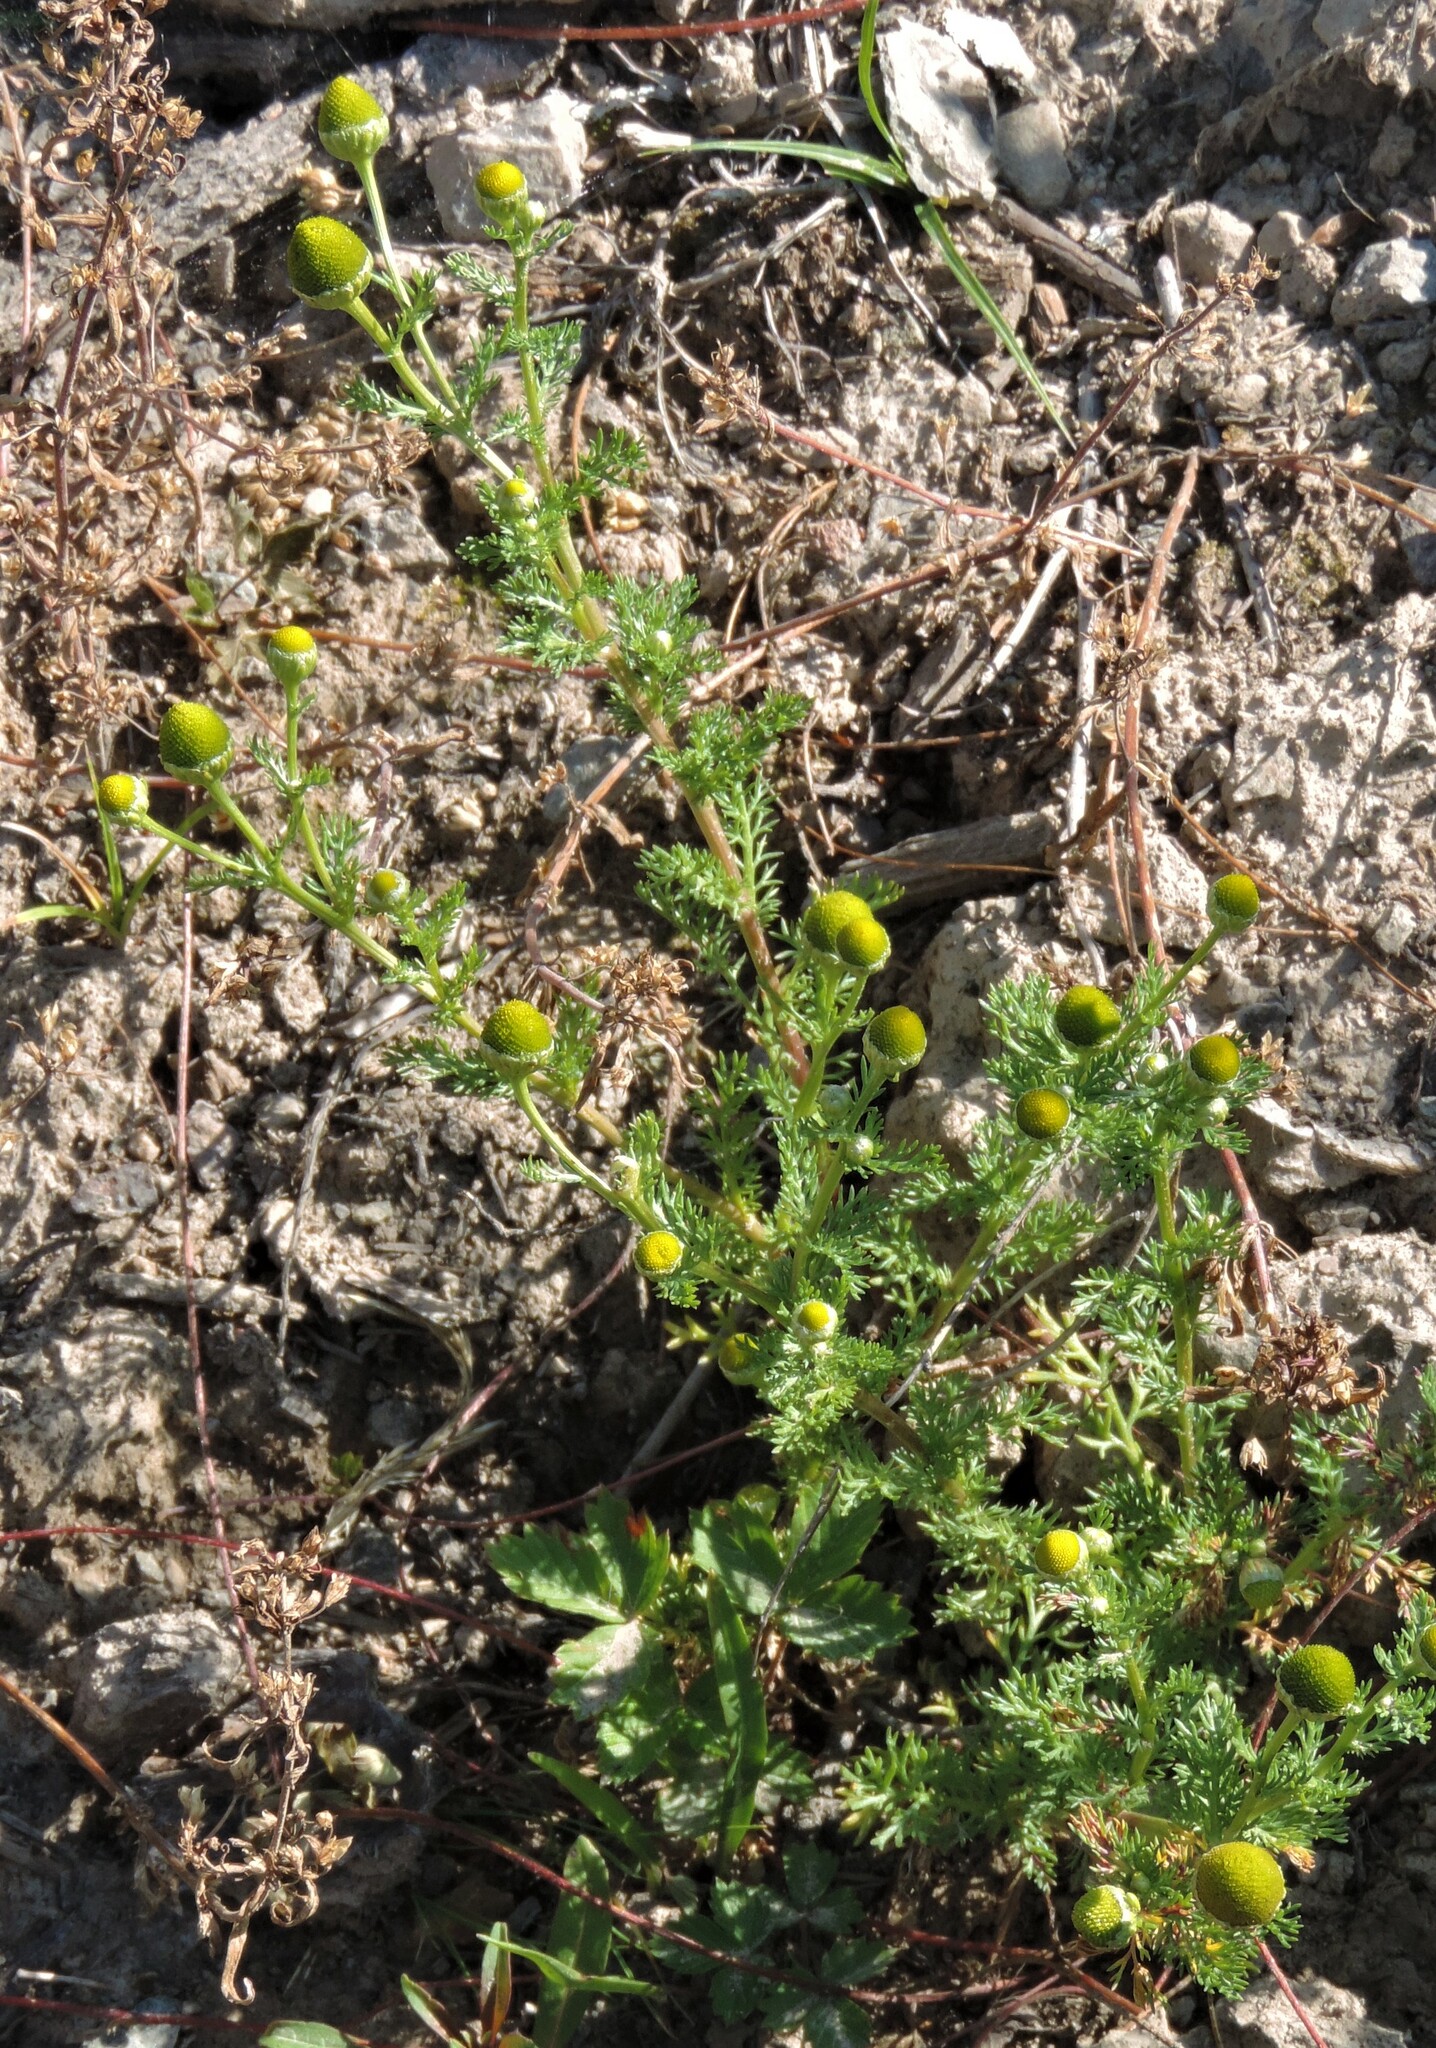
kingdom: Plantae
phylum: Tracheophyta
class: Magnoliopsida
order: Asterales
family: Asteraceae
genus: Matricaria
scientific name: Matricaria discoidea
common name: Disc mayweed
